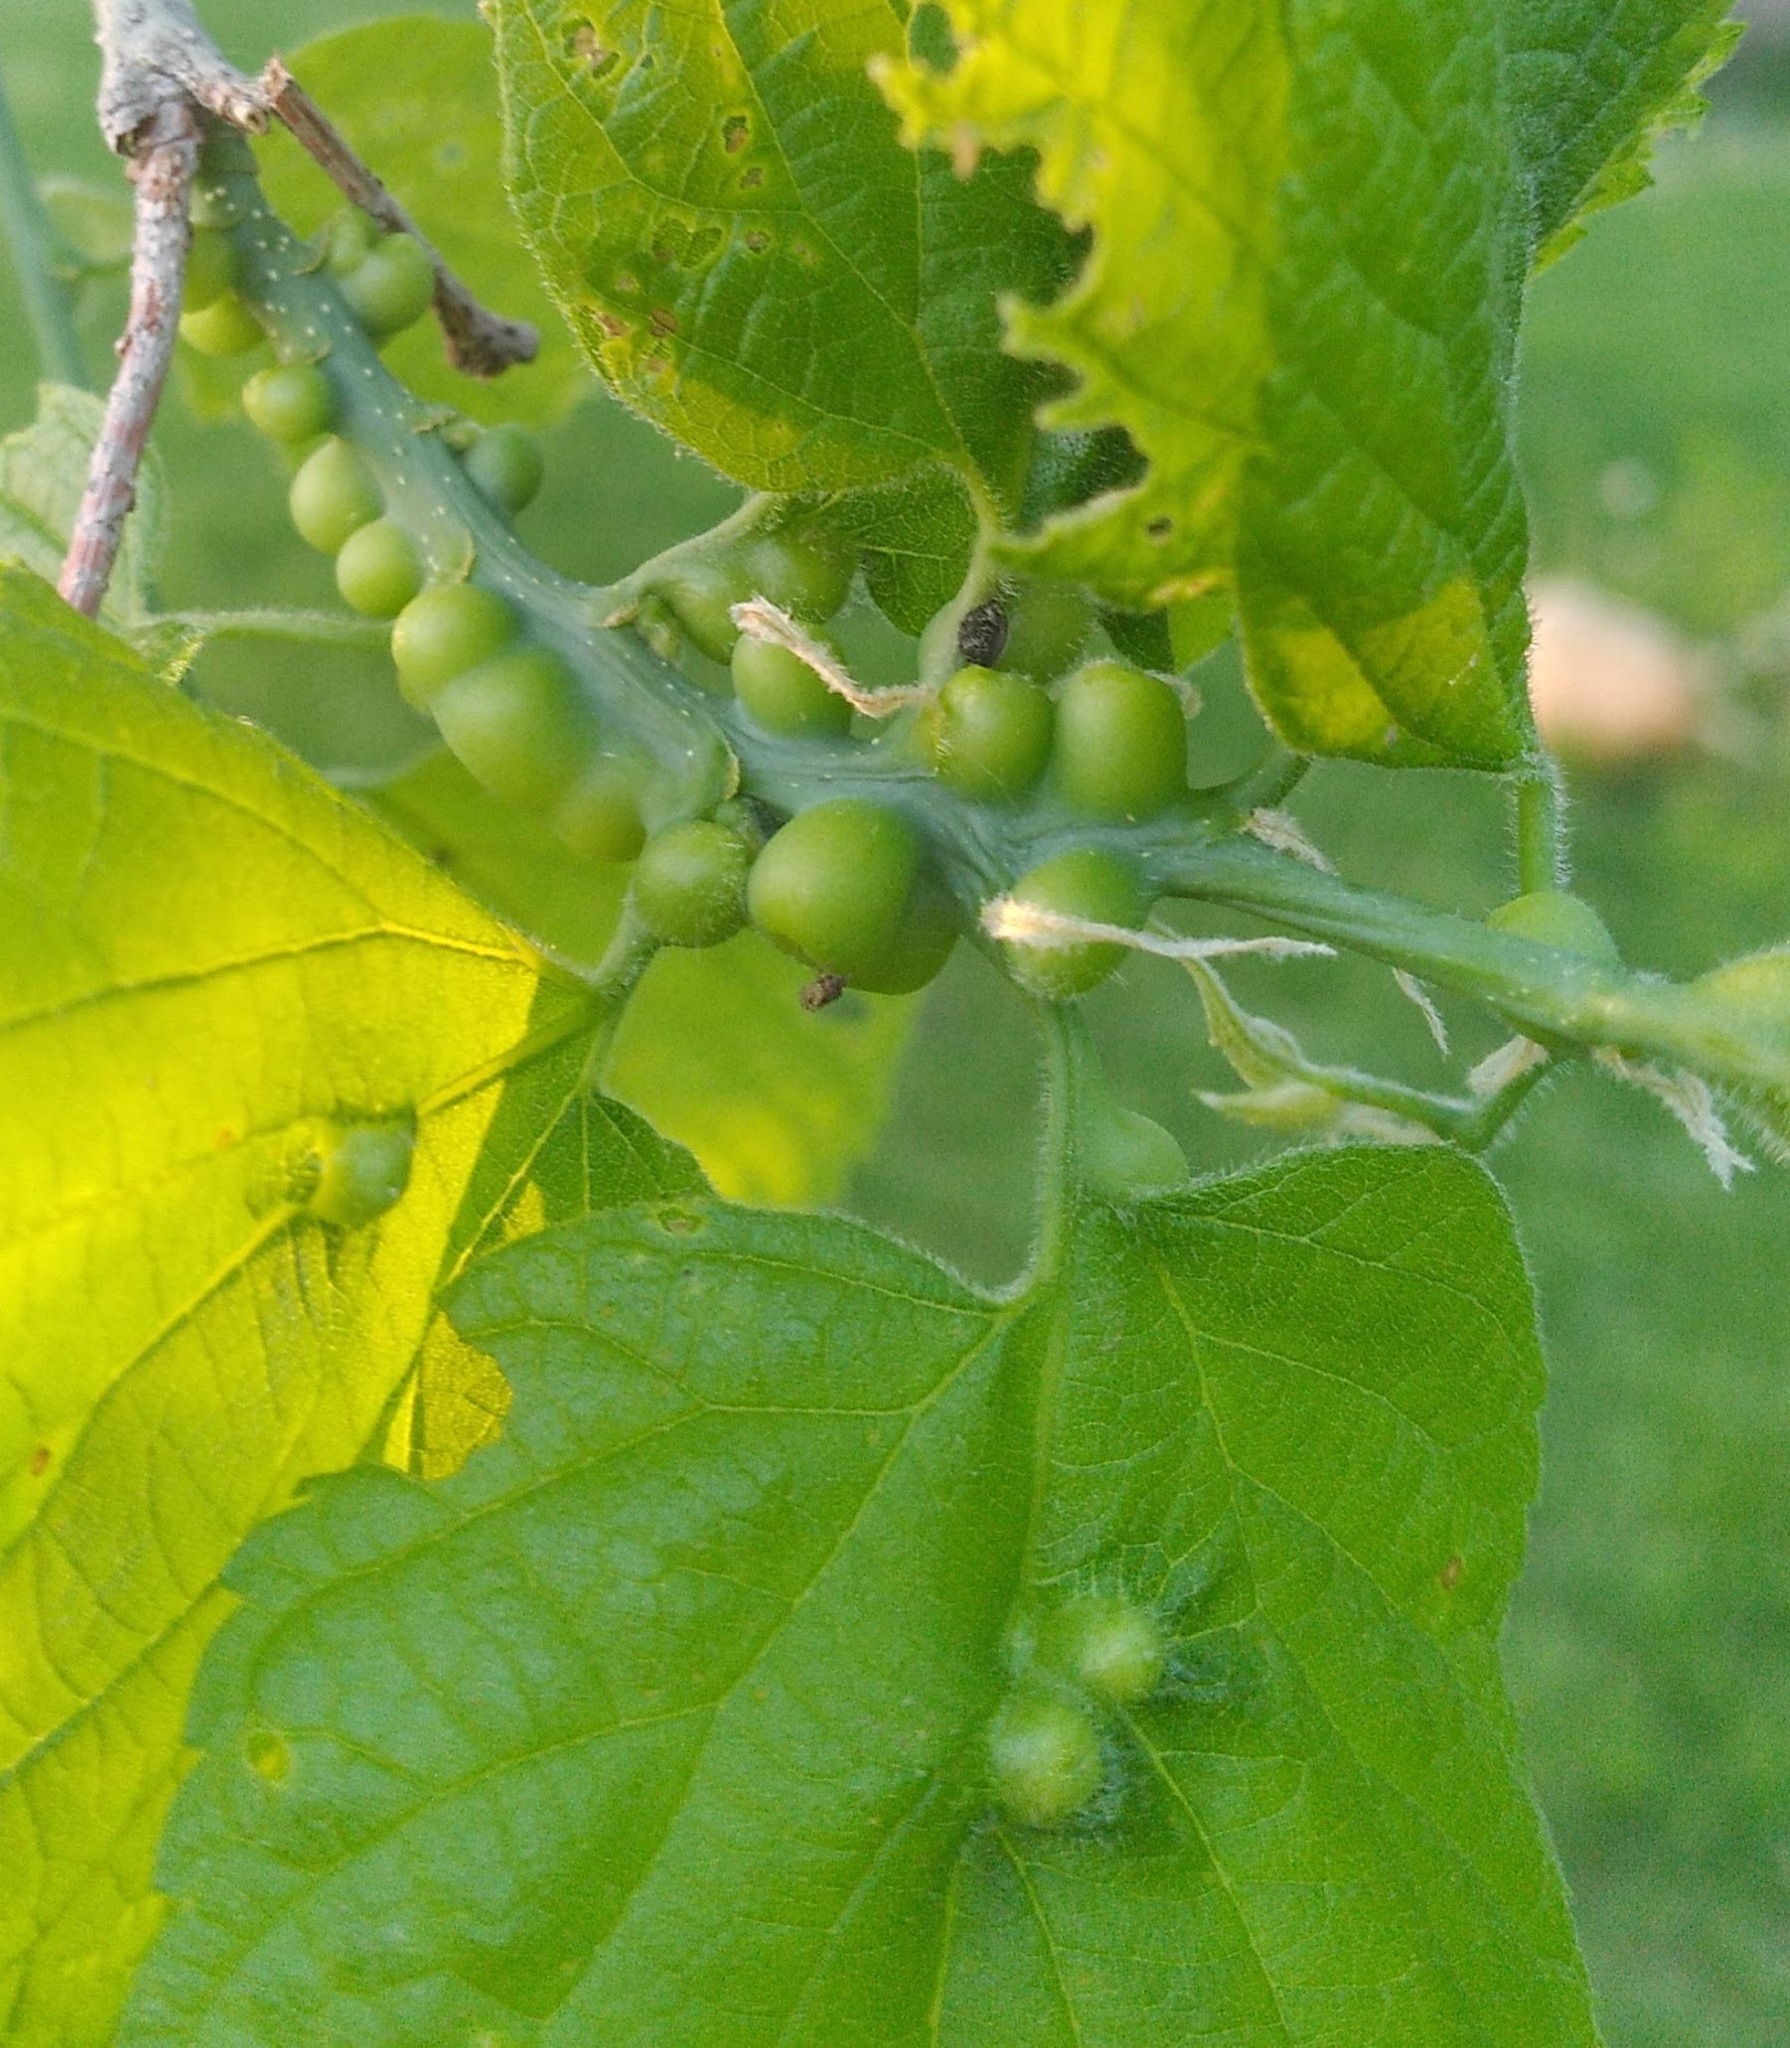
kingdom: Animalia
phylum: Arthropoda
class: Insecta
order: Diptera
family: Cecidomyiidae
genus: Celticecis
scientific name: Celticecis expulsa
